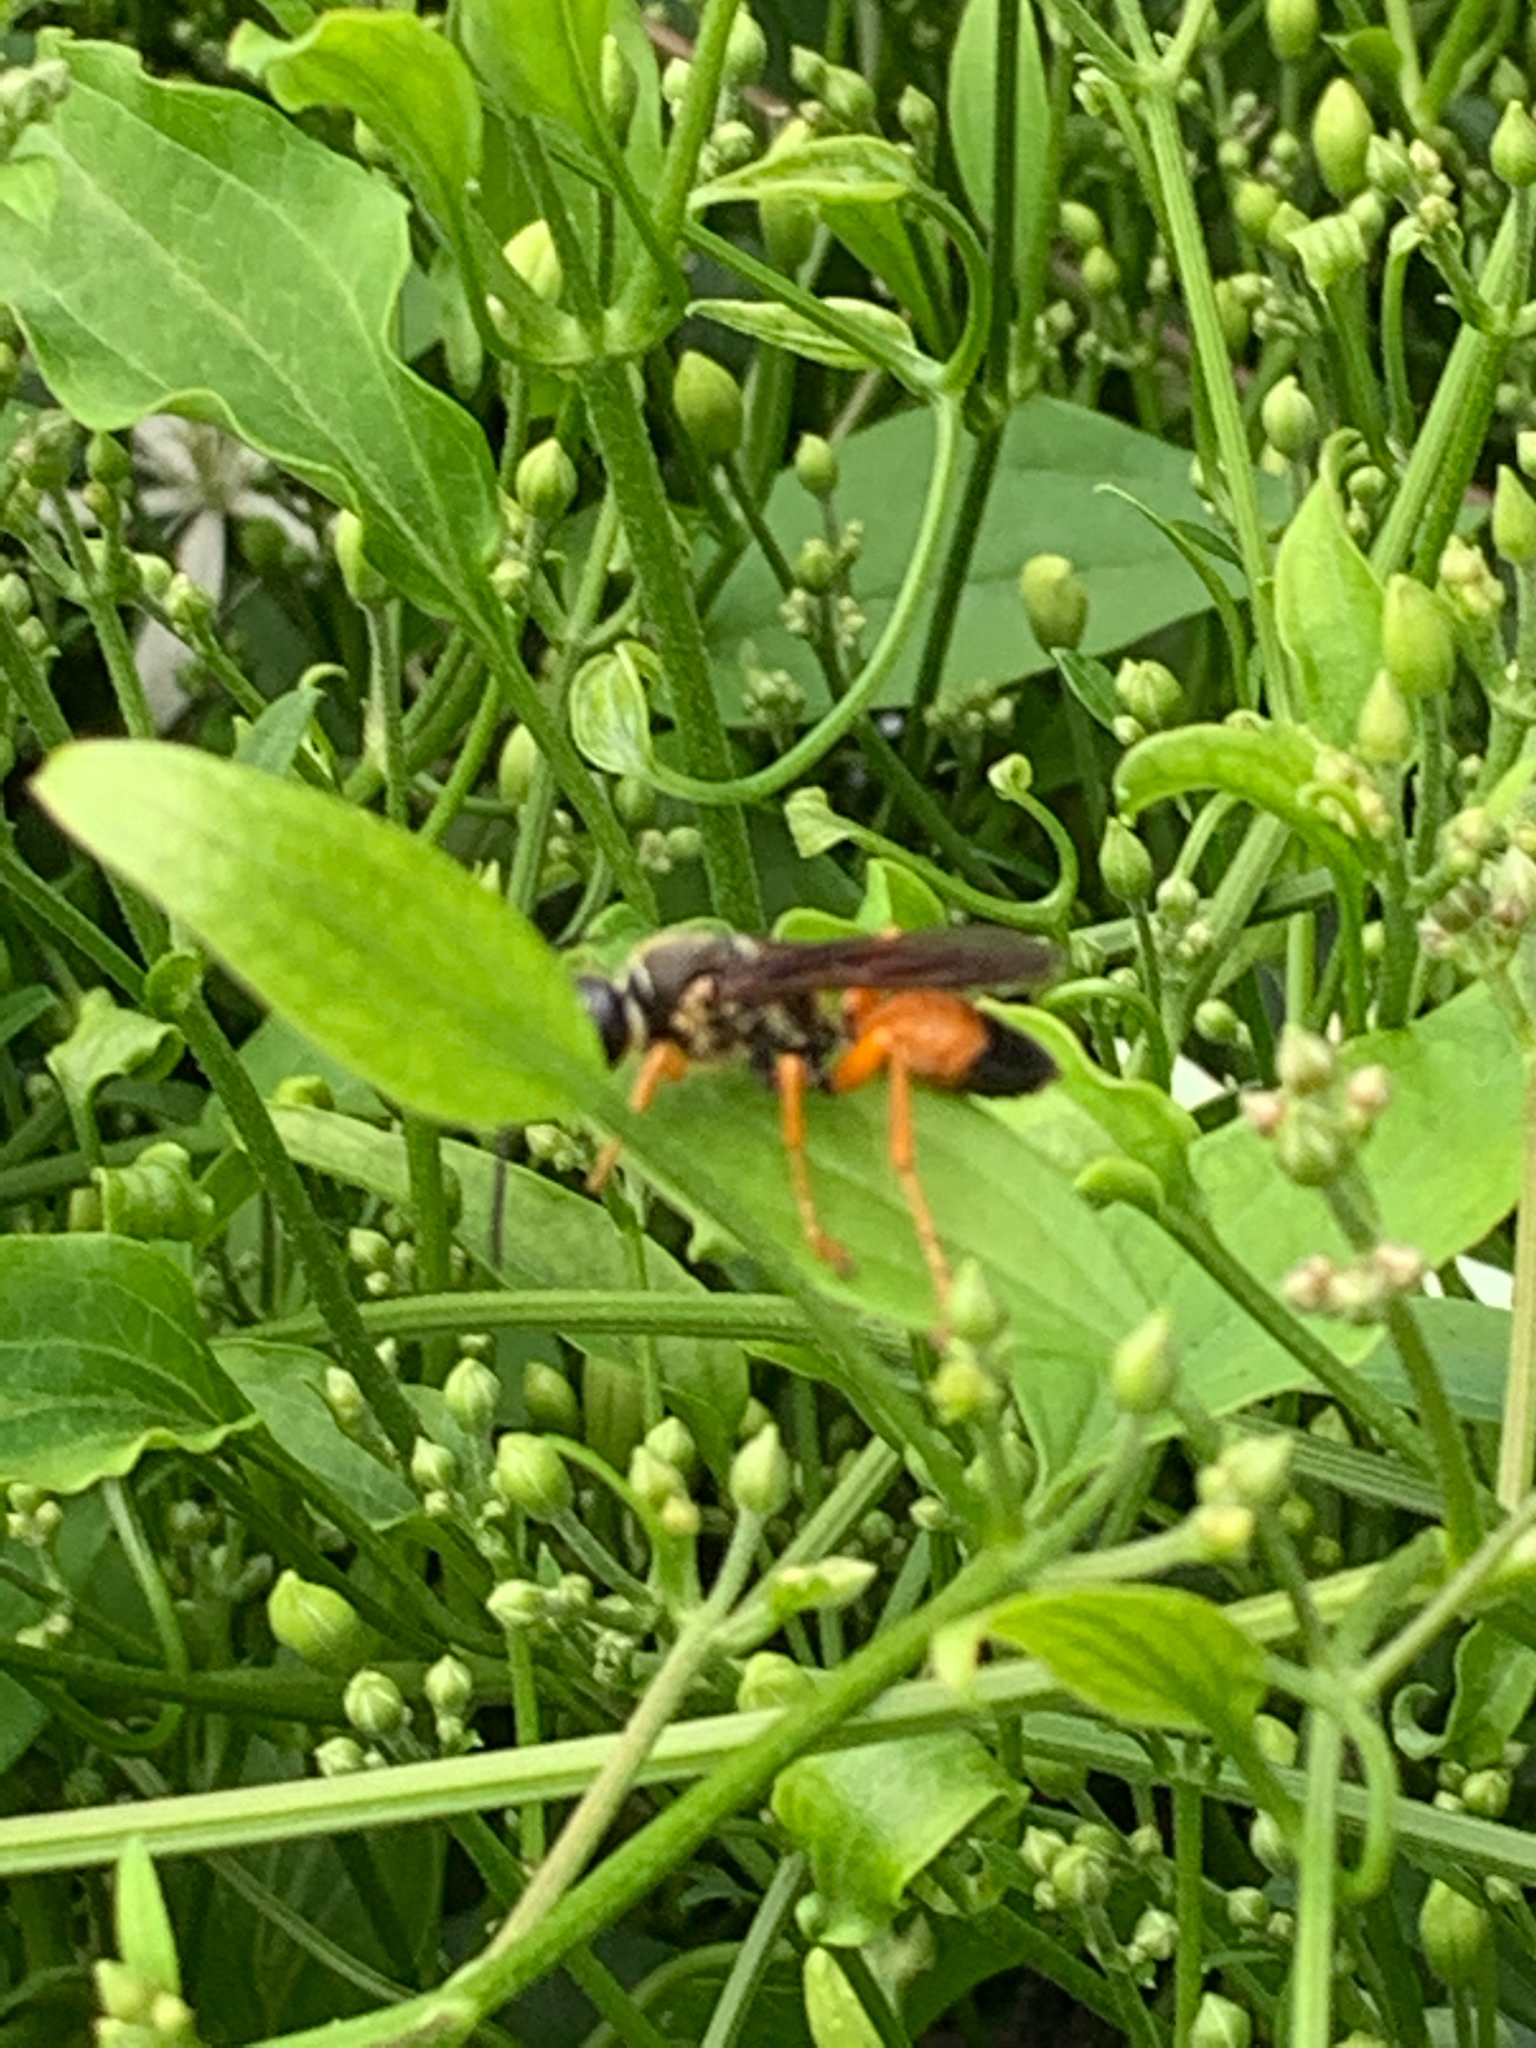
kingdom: Animalia
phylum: Arthropoda
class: Insecta
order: Hymenoptera
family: Sphecidae
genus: Sphex
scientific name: Sphex ichneumoneus
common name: Great golden digger wasp
